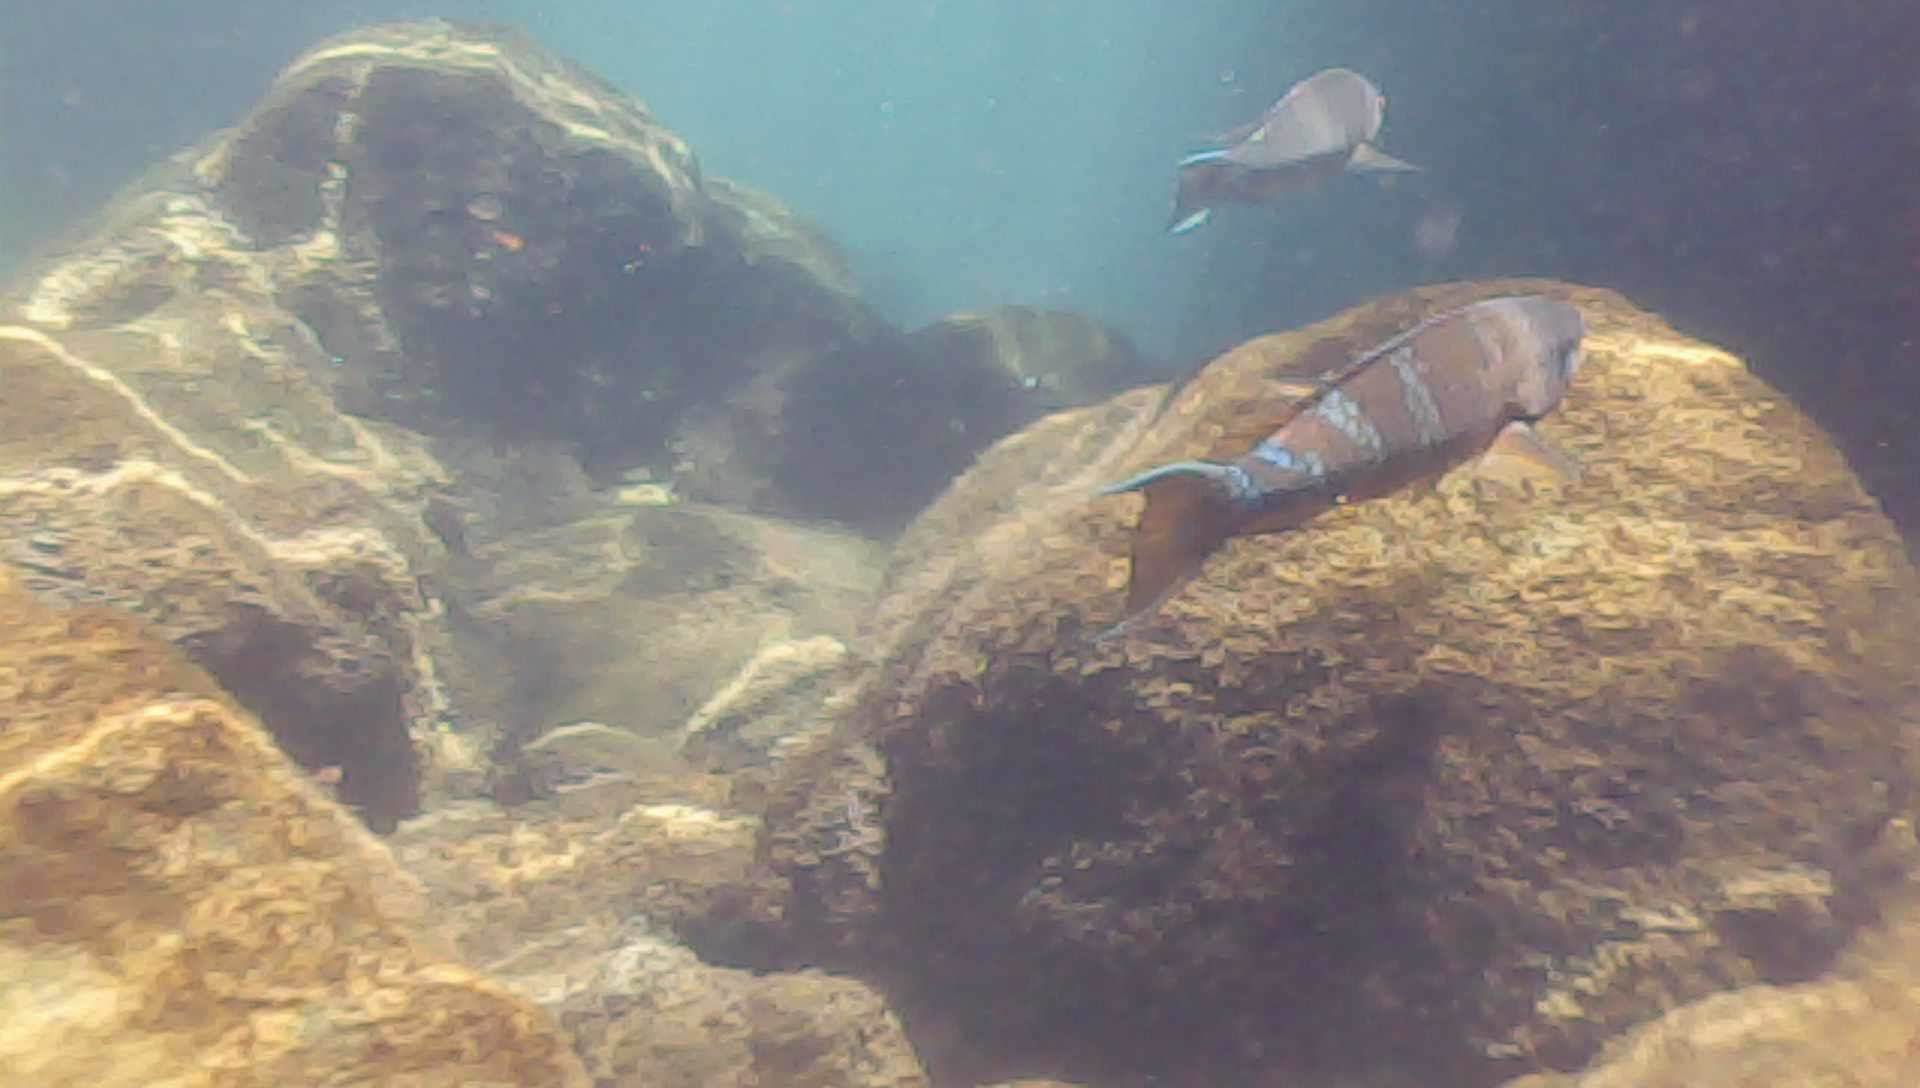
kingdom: Animalia
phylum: Chordata
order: Perciformes
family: Scaridae
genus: Scarus
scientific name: Scarus ghobban
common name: Blue-barred parrotfish
